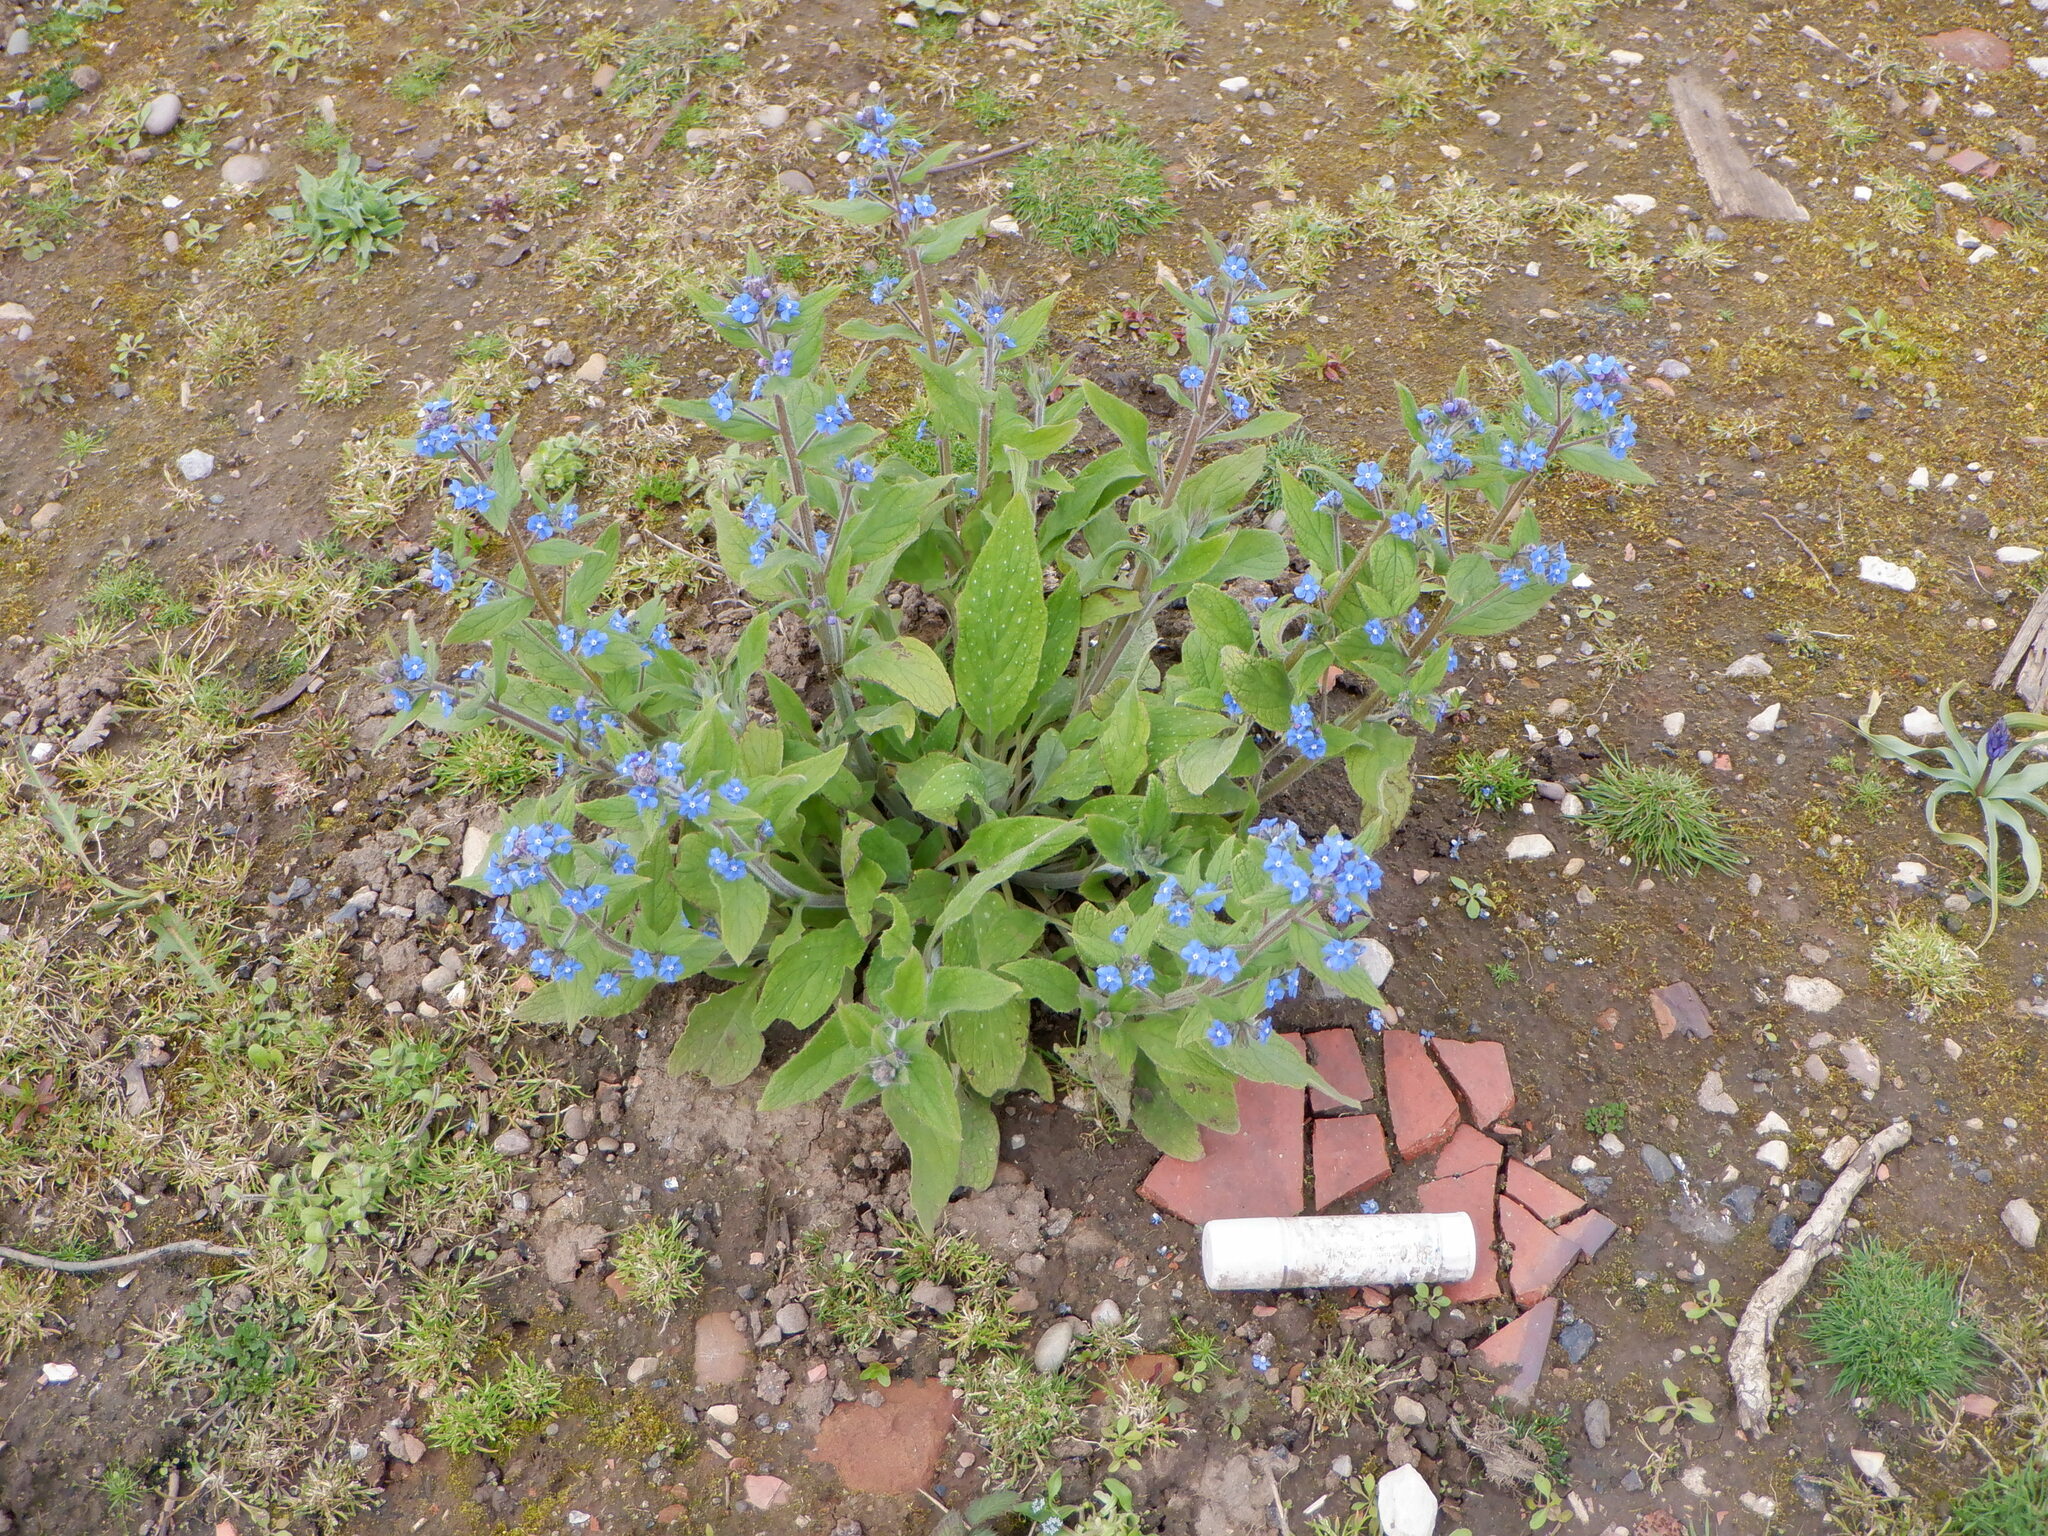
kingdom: Plantae
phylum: Tracheophyta
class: Magnoliopsida
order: Boraginales
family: Boraginaceae
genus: Pentaglottis
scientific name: Pentaglottis sempervirens
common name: Green alkanet
